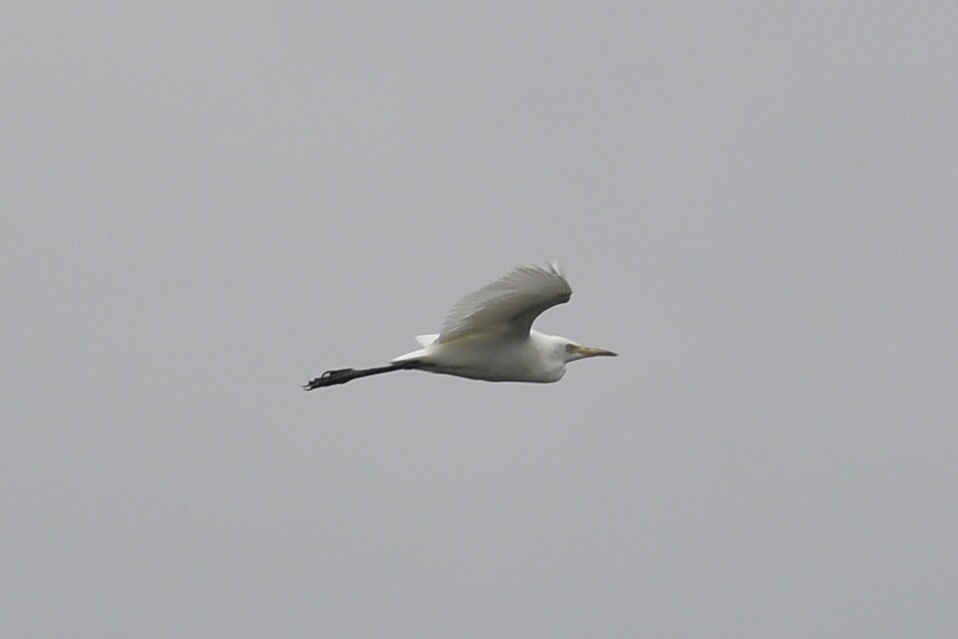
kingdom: Animalia
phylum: Chordata
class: Aves
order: Pelecaniformes
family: Ardeidae
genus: Bubulcus
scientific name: Bubulcus coromandus
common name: Eastern cattle egret
